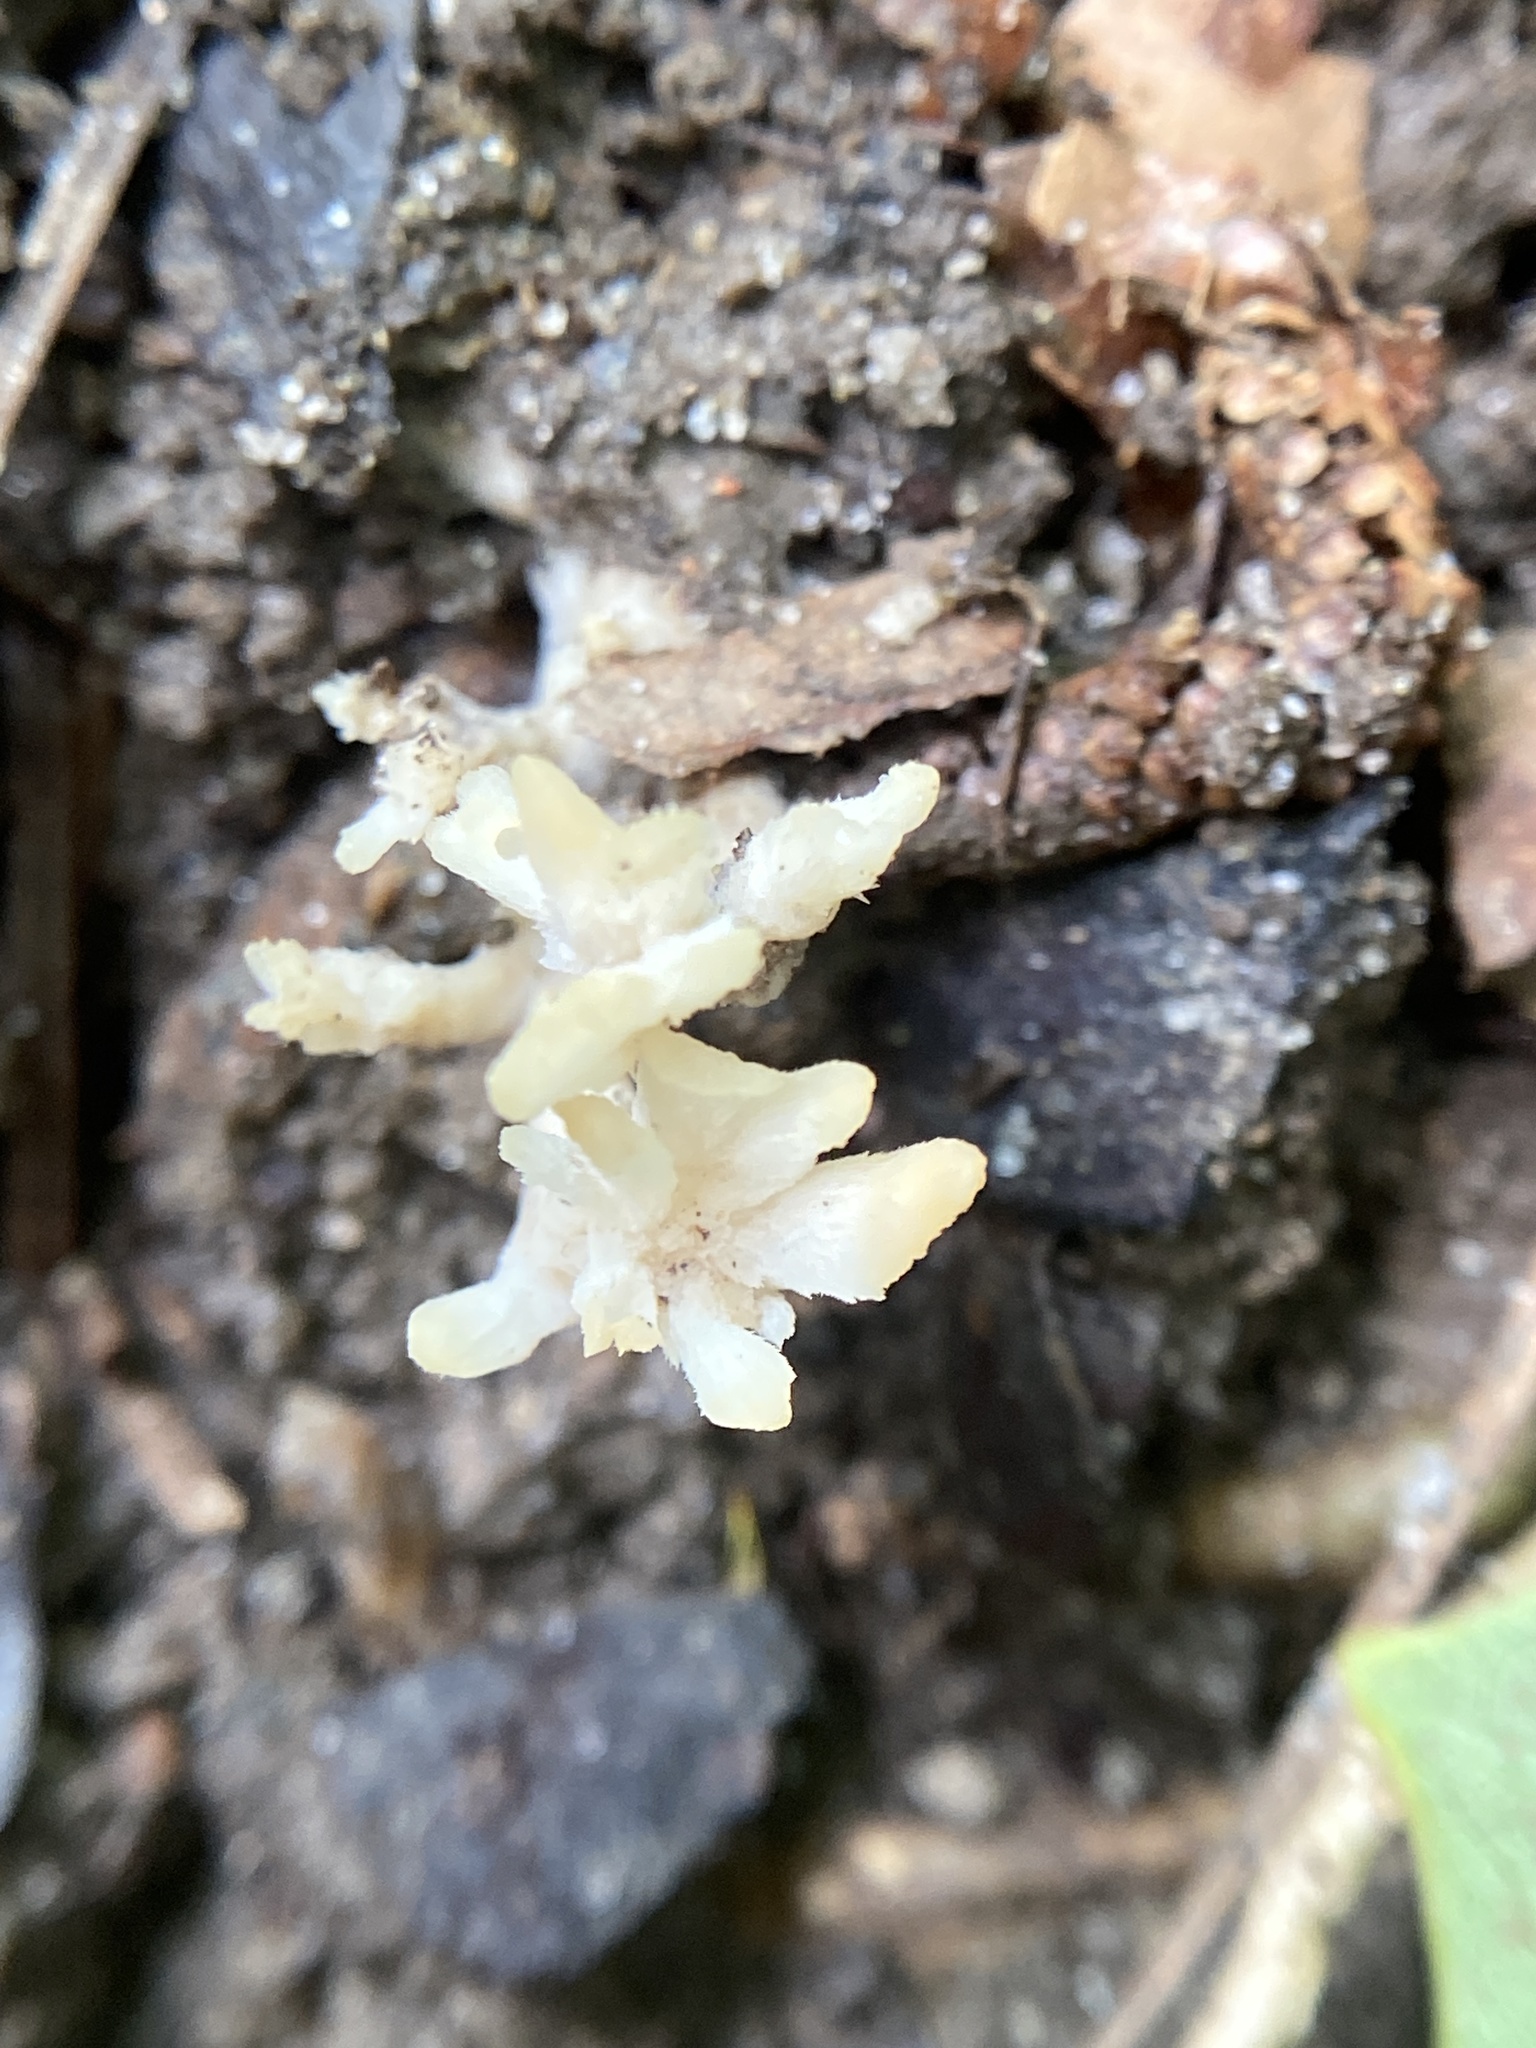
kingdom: Fungi
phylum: Basidiomycota
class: Agaricomycetes
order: Sebacinales
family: Sebacinaceae
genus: Sebacina
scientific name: Sebacina schweinitzii
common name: Jellied false coral fungus
